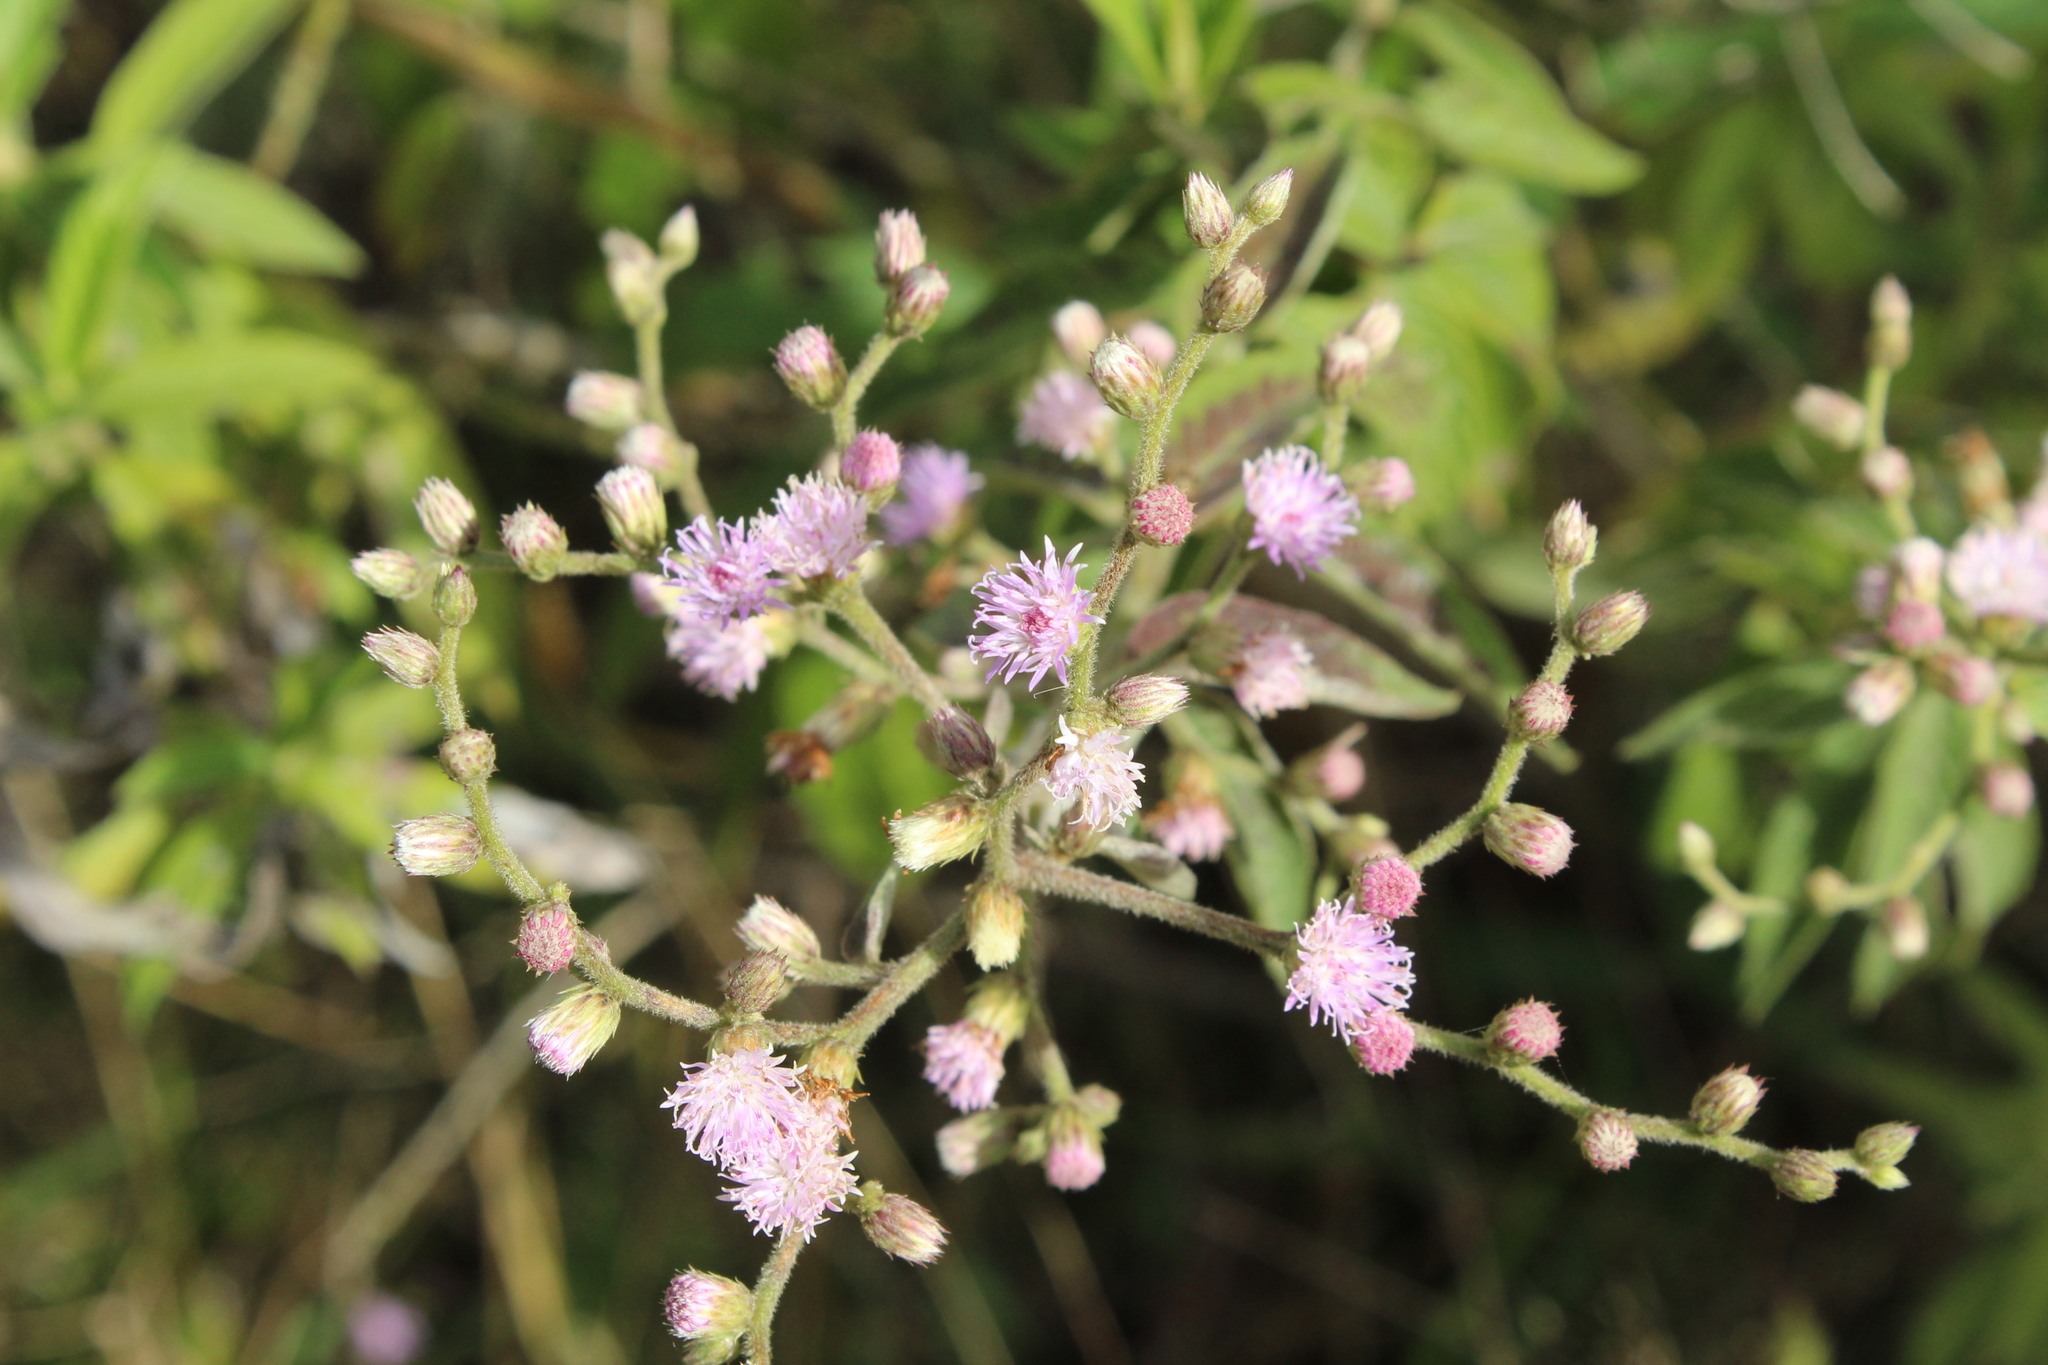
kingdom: Plantae
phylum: Tracheophyta
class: Magnoliopsida
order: Asterales
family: Asteraceae
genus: Lepidaploa
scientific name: Lepidaploa canescens
